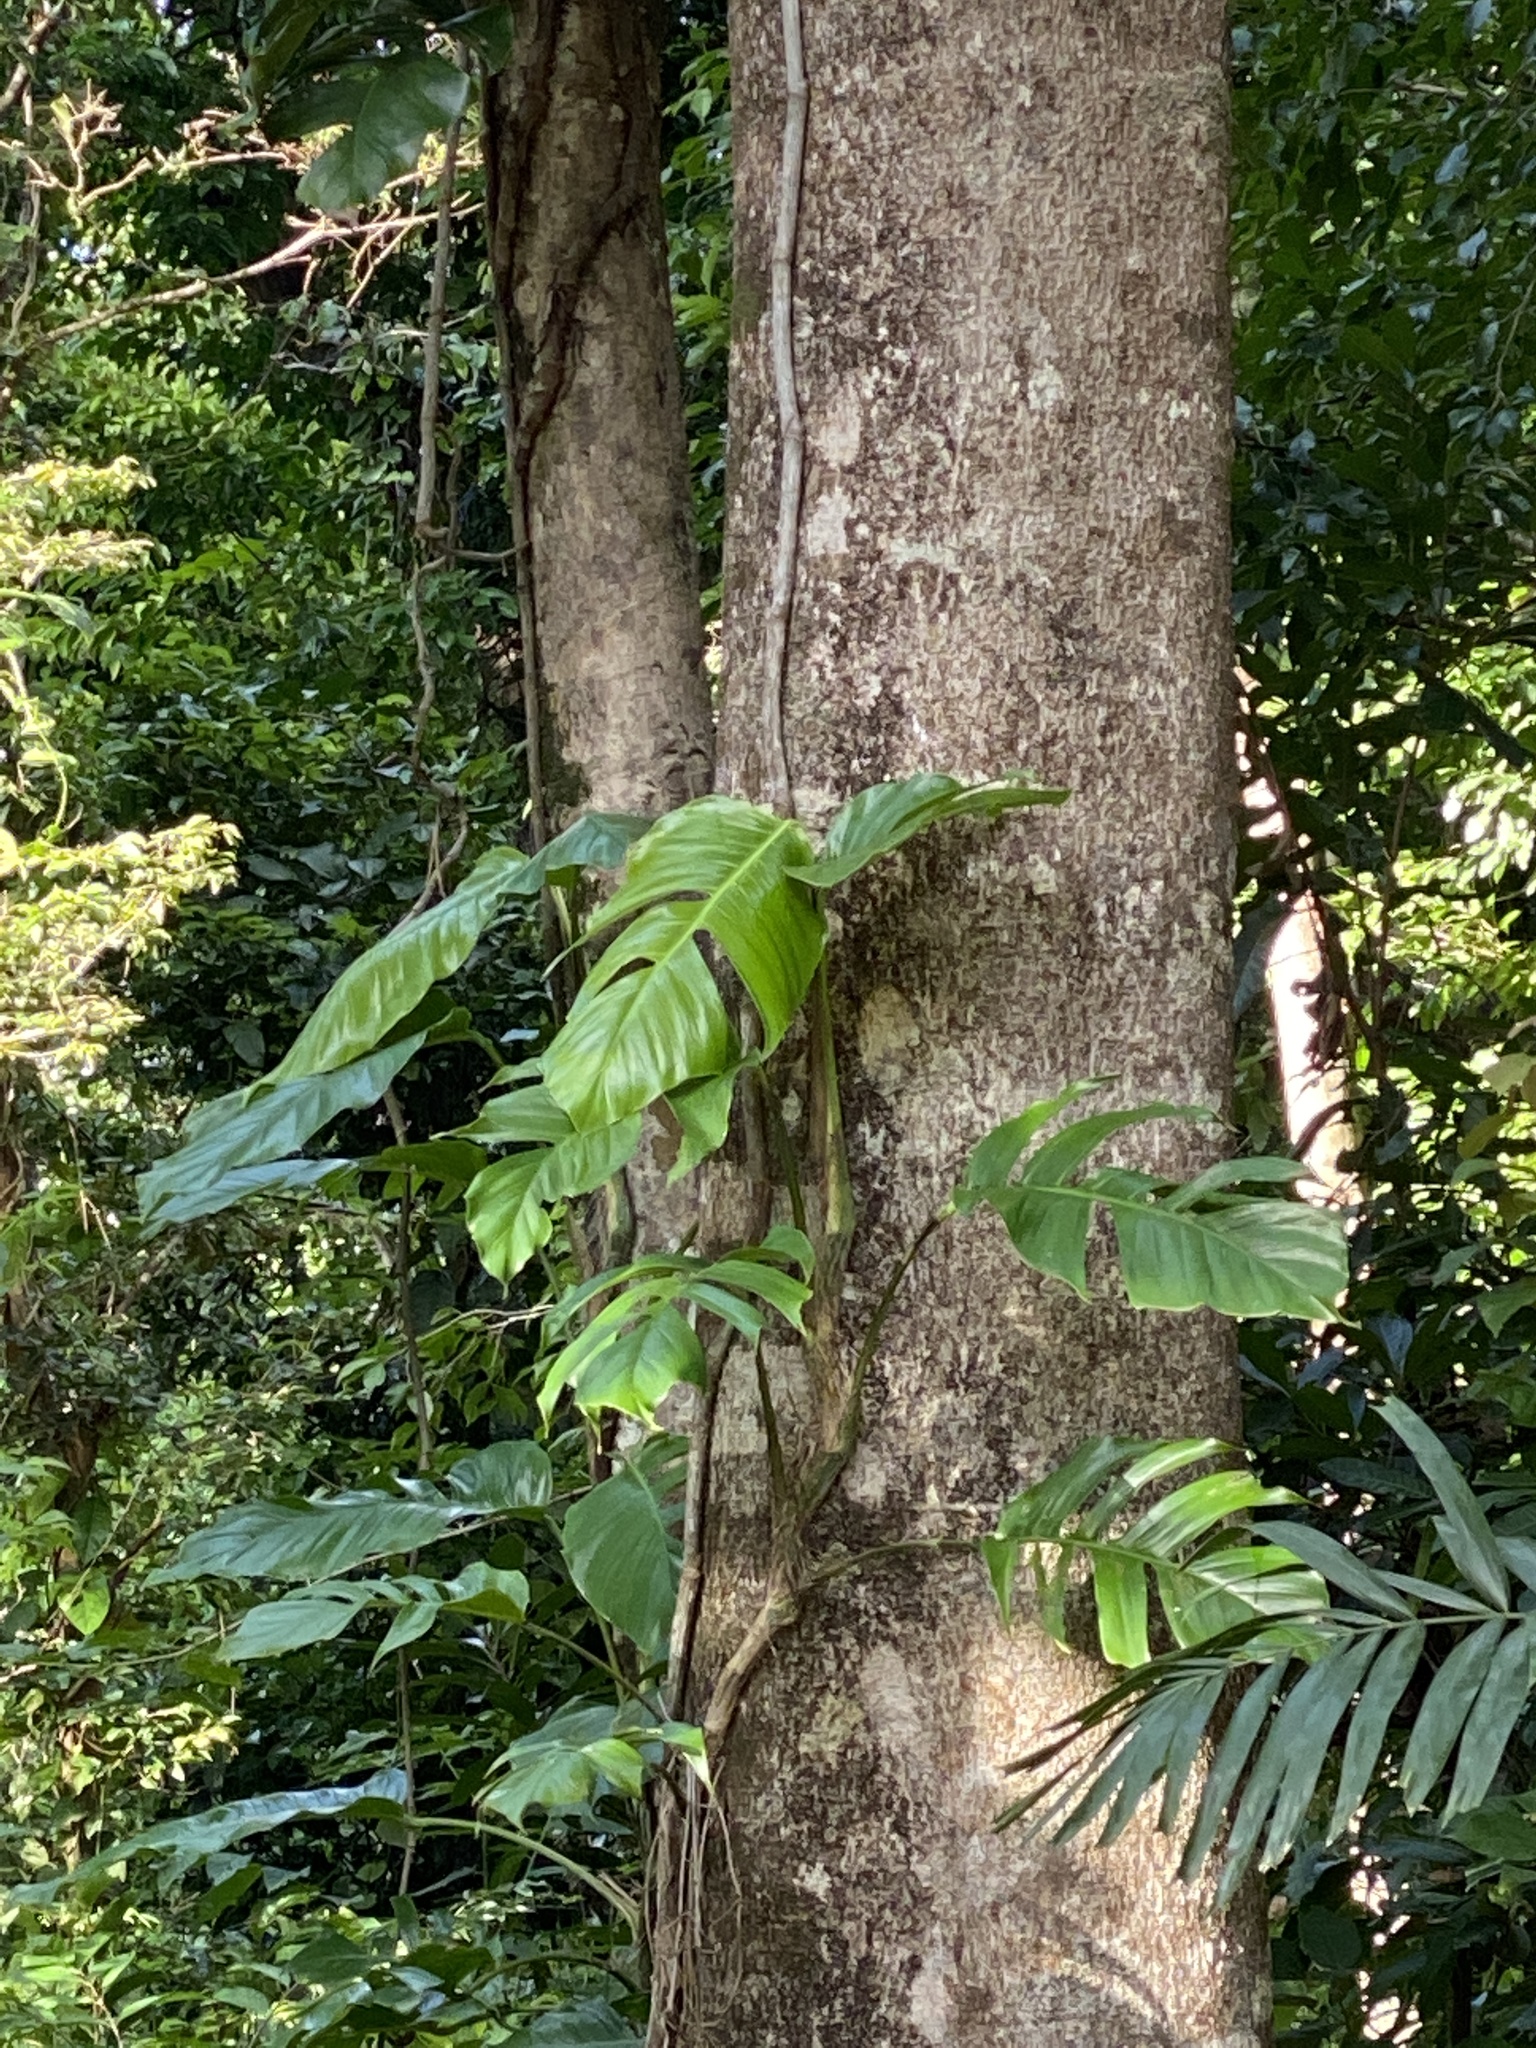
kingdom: Plantae
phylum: Tracheophyta
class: Liliopsida
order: Alismatales
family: Araceae
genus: Epipremnum
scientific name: Epipremnum pinnatum
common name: Centipede tongavine
